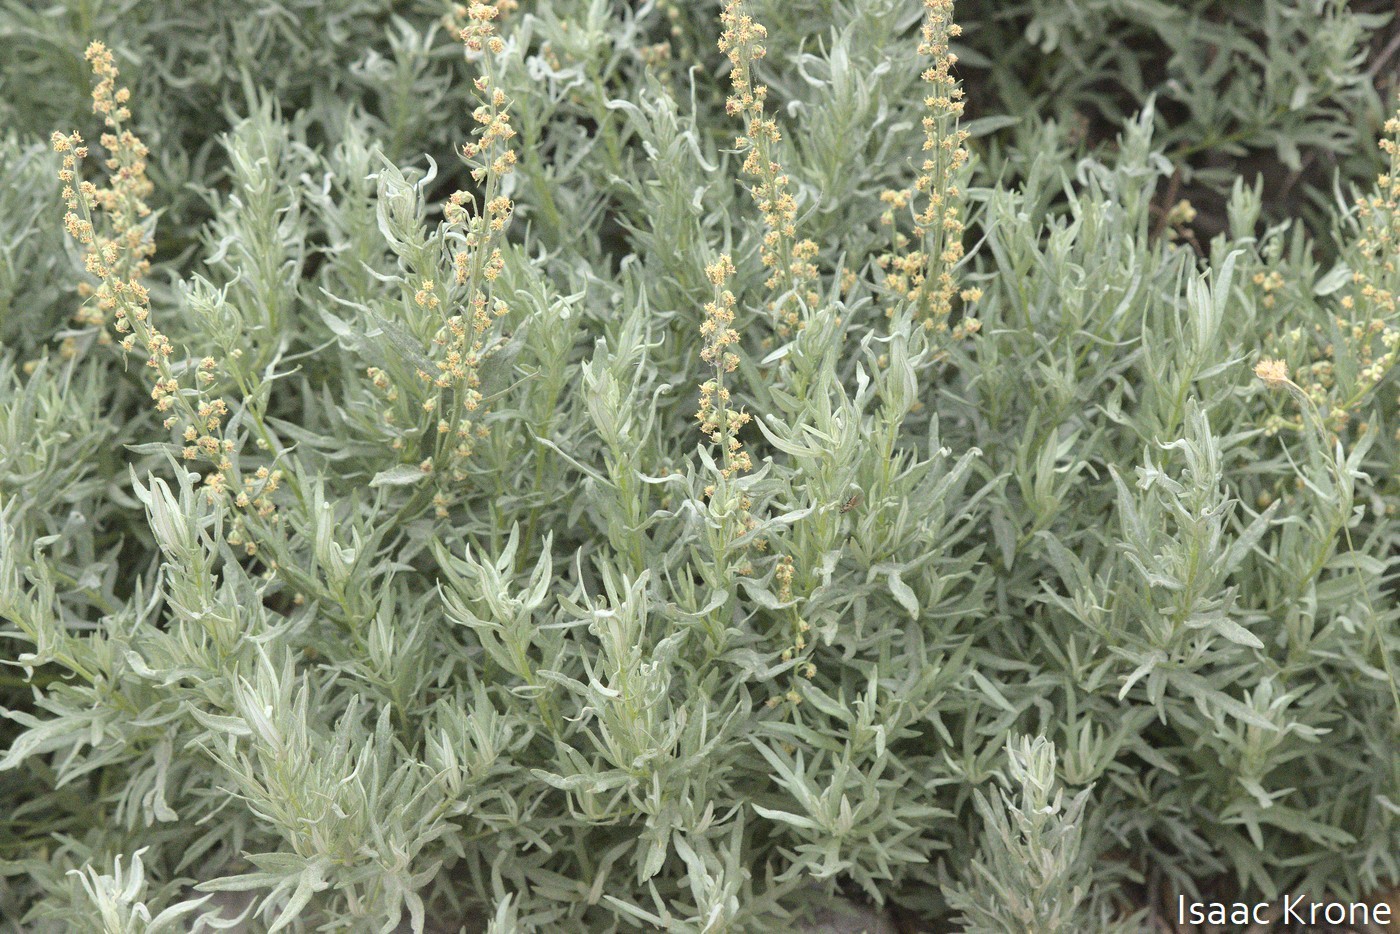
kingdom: Plantae
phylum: Tracheophyta
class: Magnoliopsida
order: Asterales
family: Asteraceae
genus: Artemisia
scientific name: Artemisia ludoviciana
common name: Western mugwort
